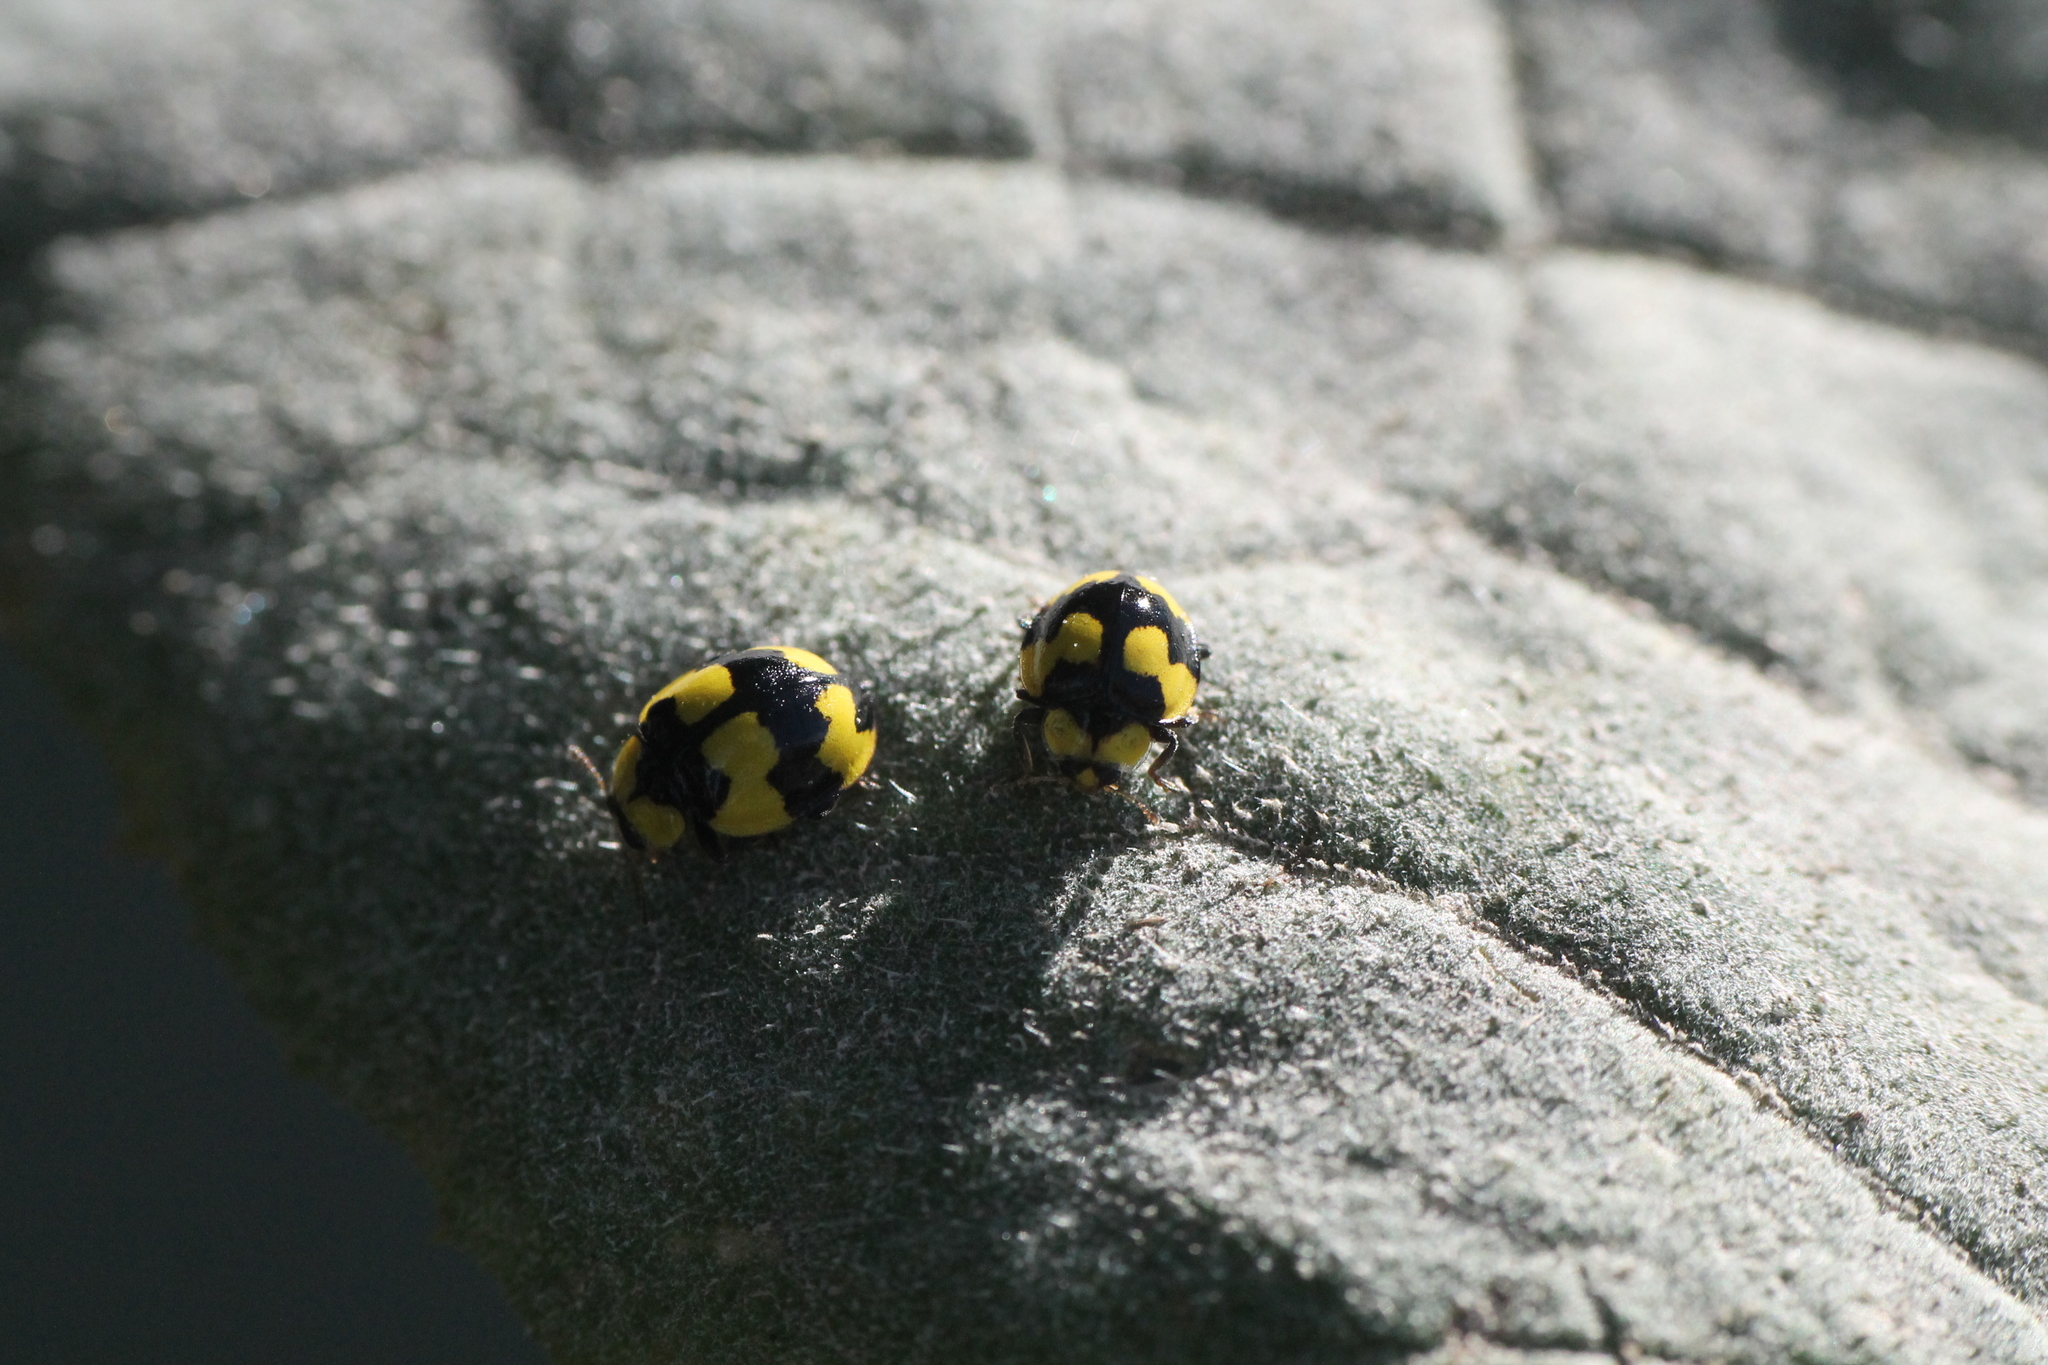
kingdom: Animalia
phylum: Arthropoda
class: Insecta
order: Coleoptera
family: Coccinellidae
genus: Illeis
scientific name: Illeis galbula
